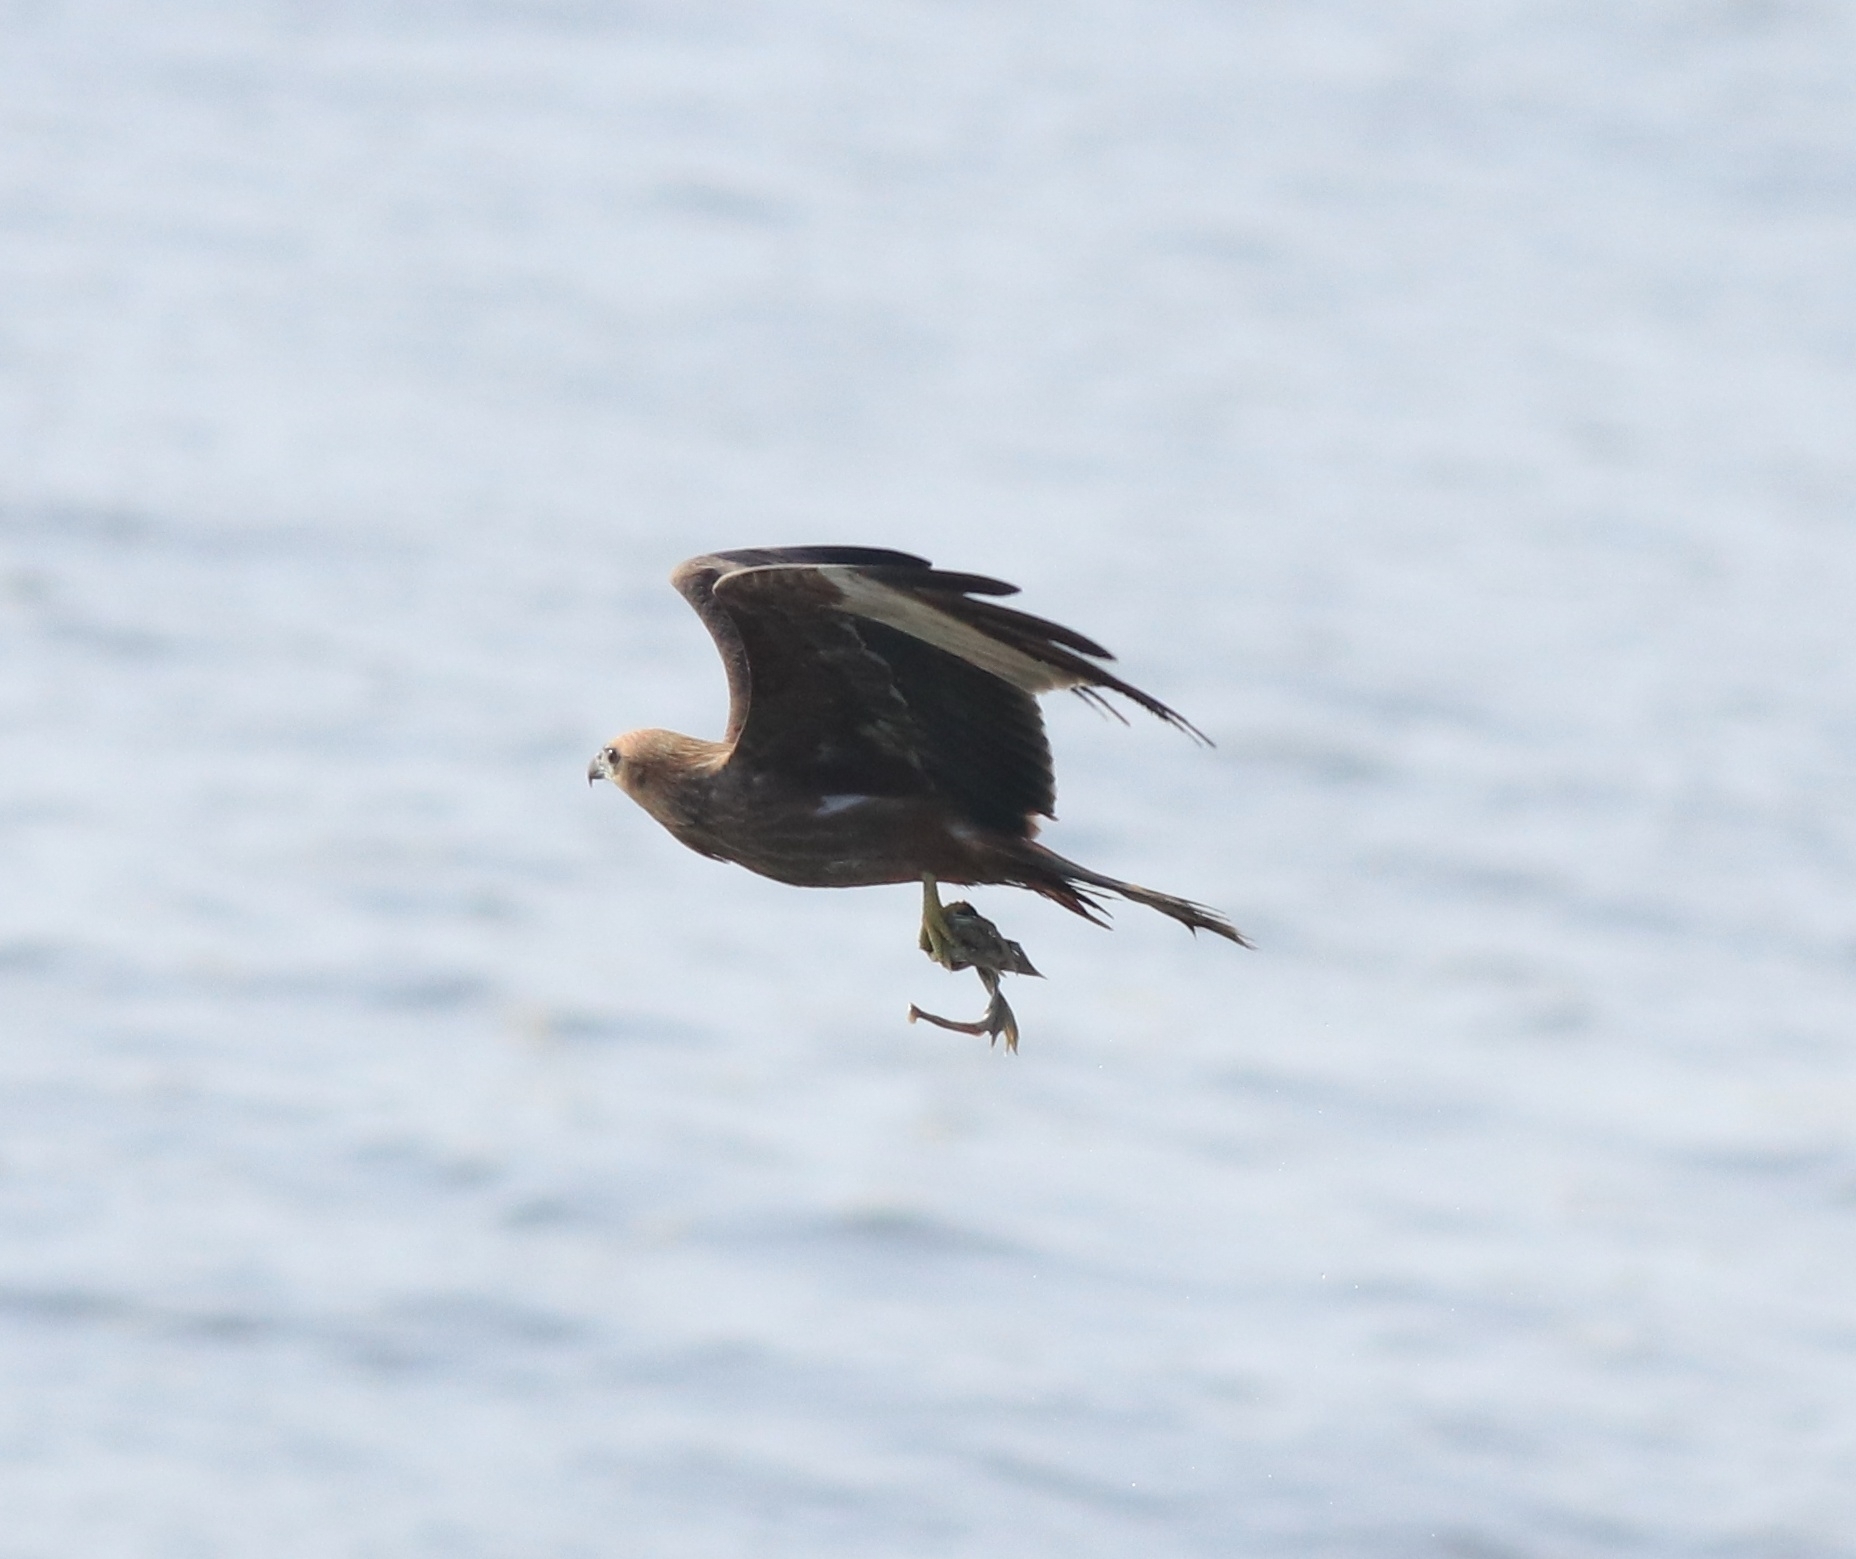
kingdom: Animalia
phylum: Chordata
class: Aves
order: Accipitriformes
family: Accipitridae
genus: Haliastur
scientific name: Haliastur indus
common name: Brahminy kite
